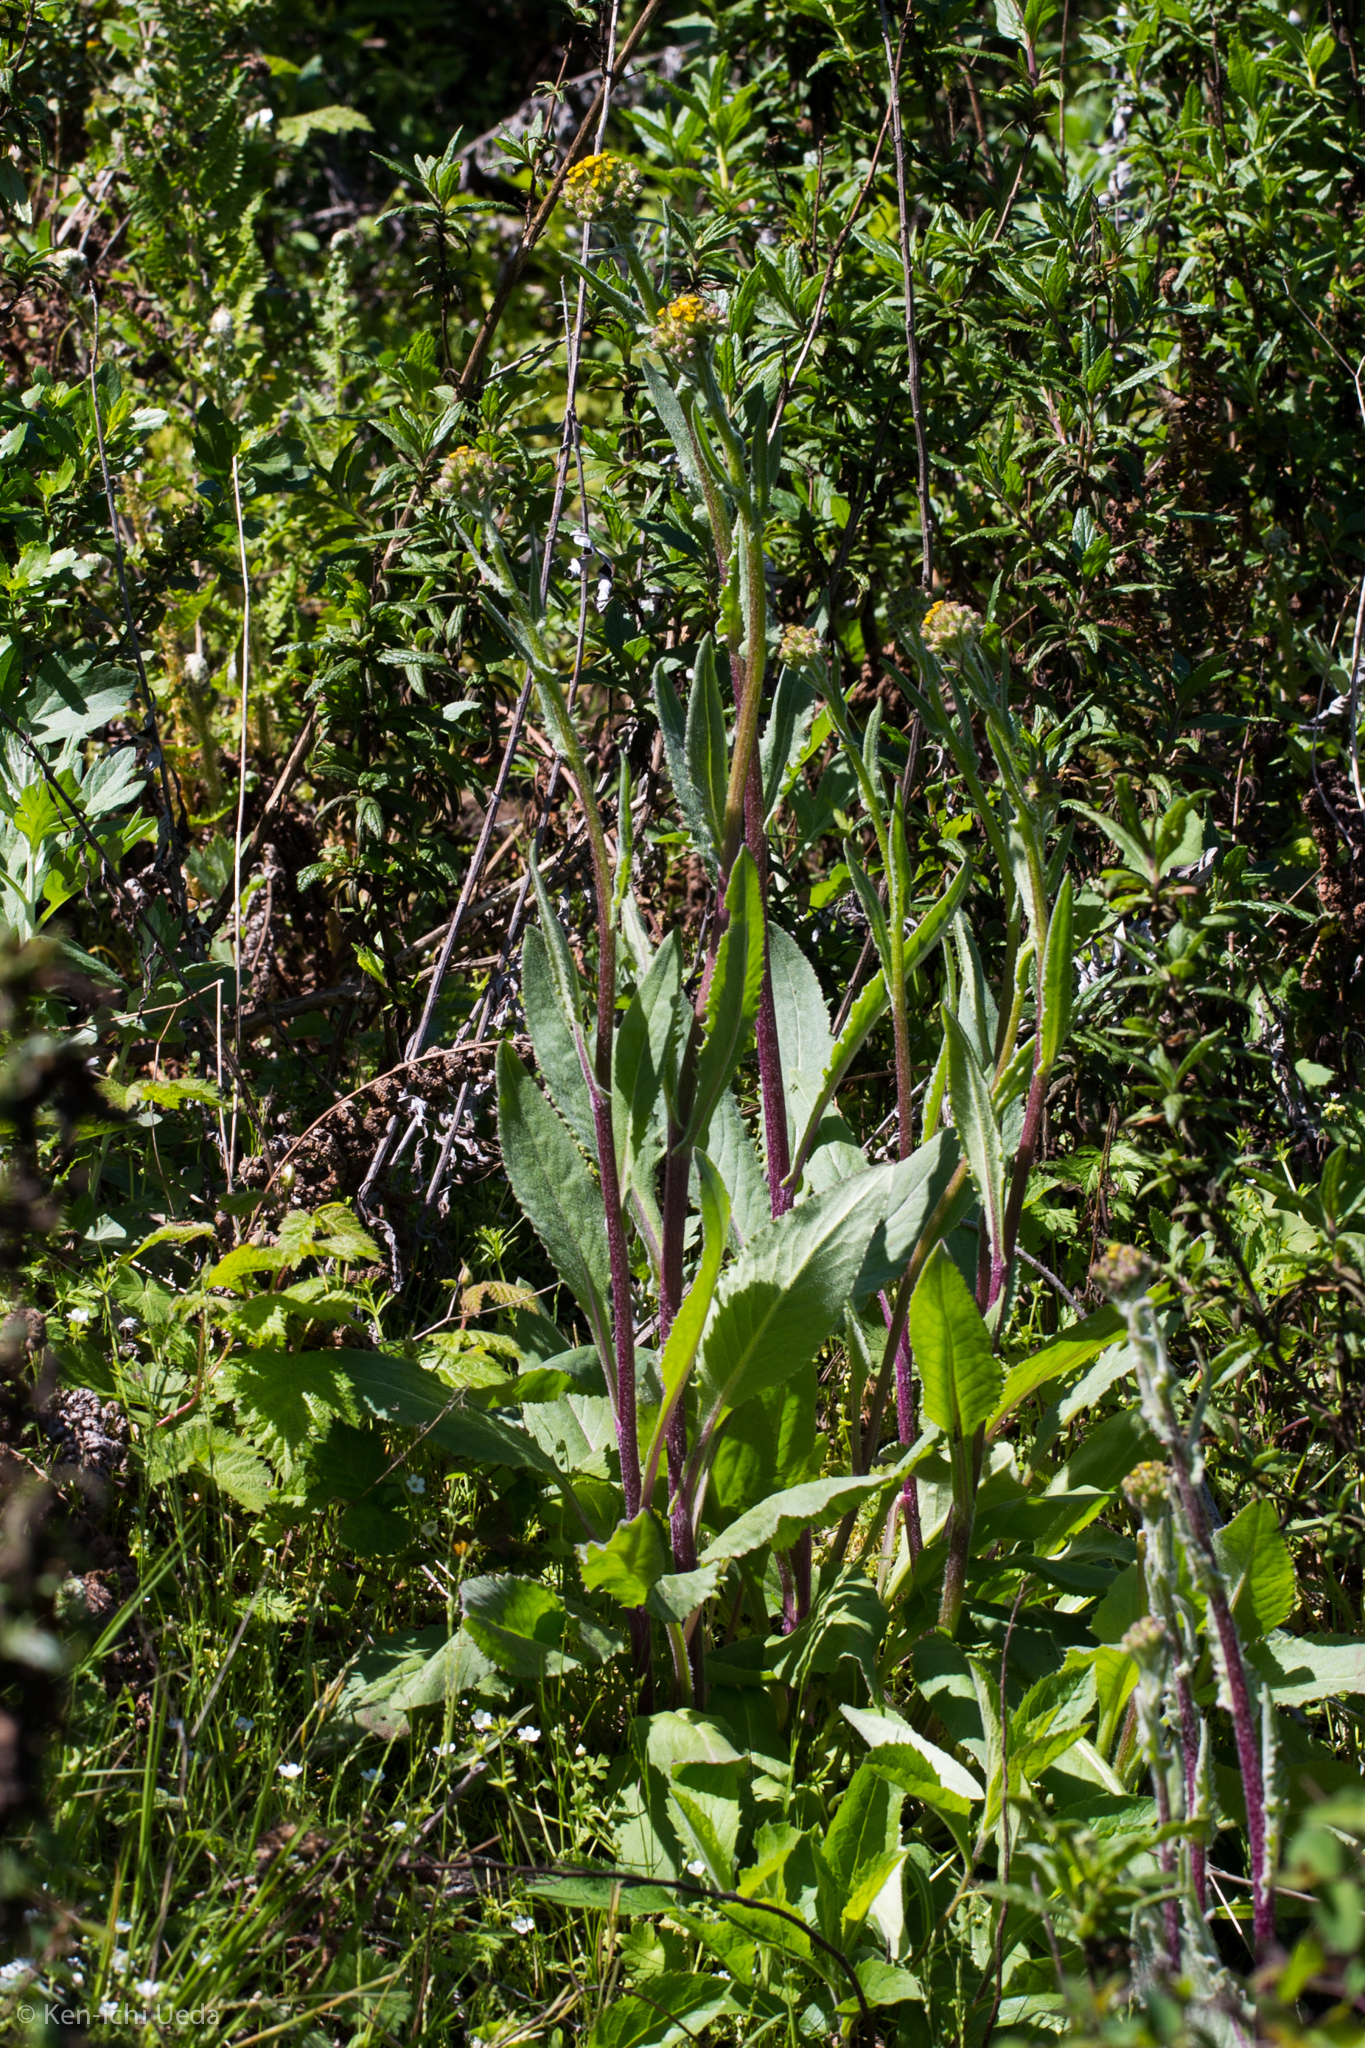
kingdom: Plantae
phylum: Tracheophyta
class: Magnoliopsida
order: Asterales
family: Asteraceae
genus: Senecio
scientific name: Senecio aronicoides
